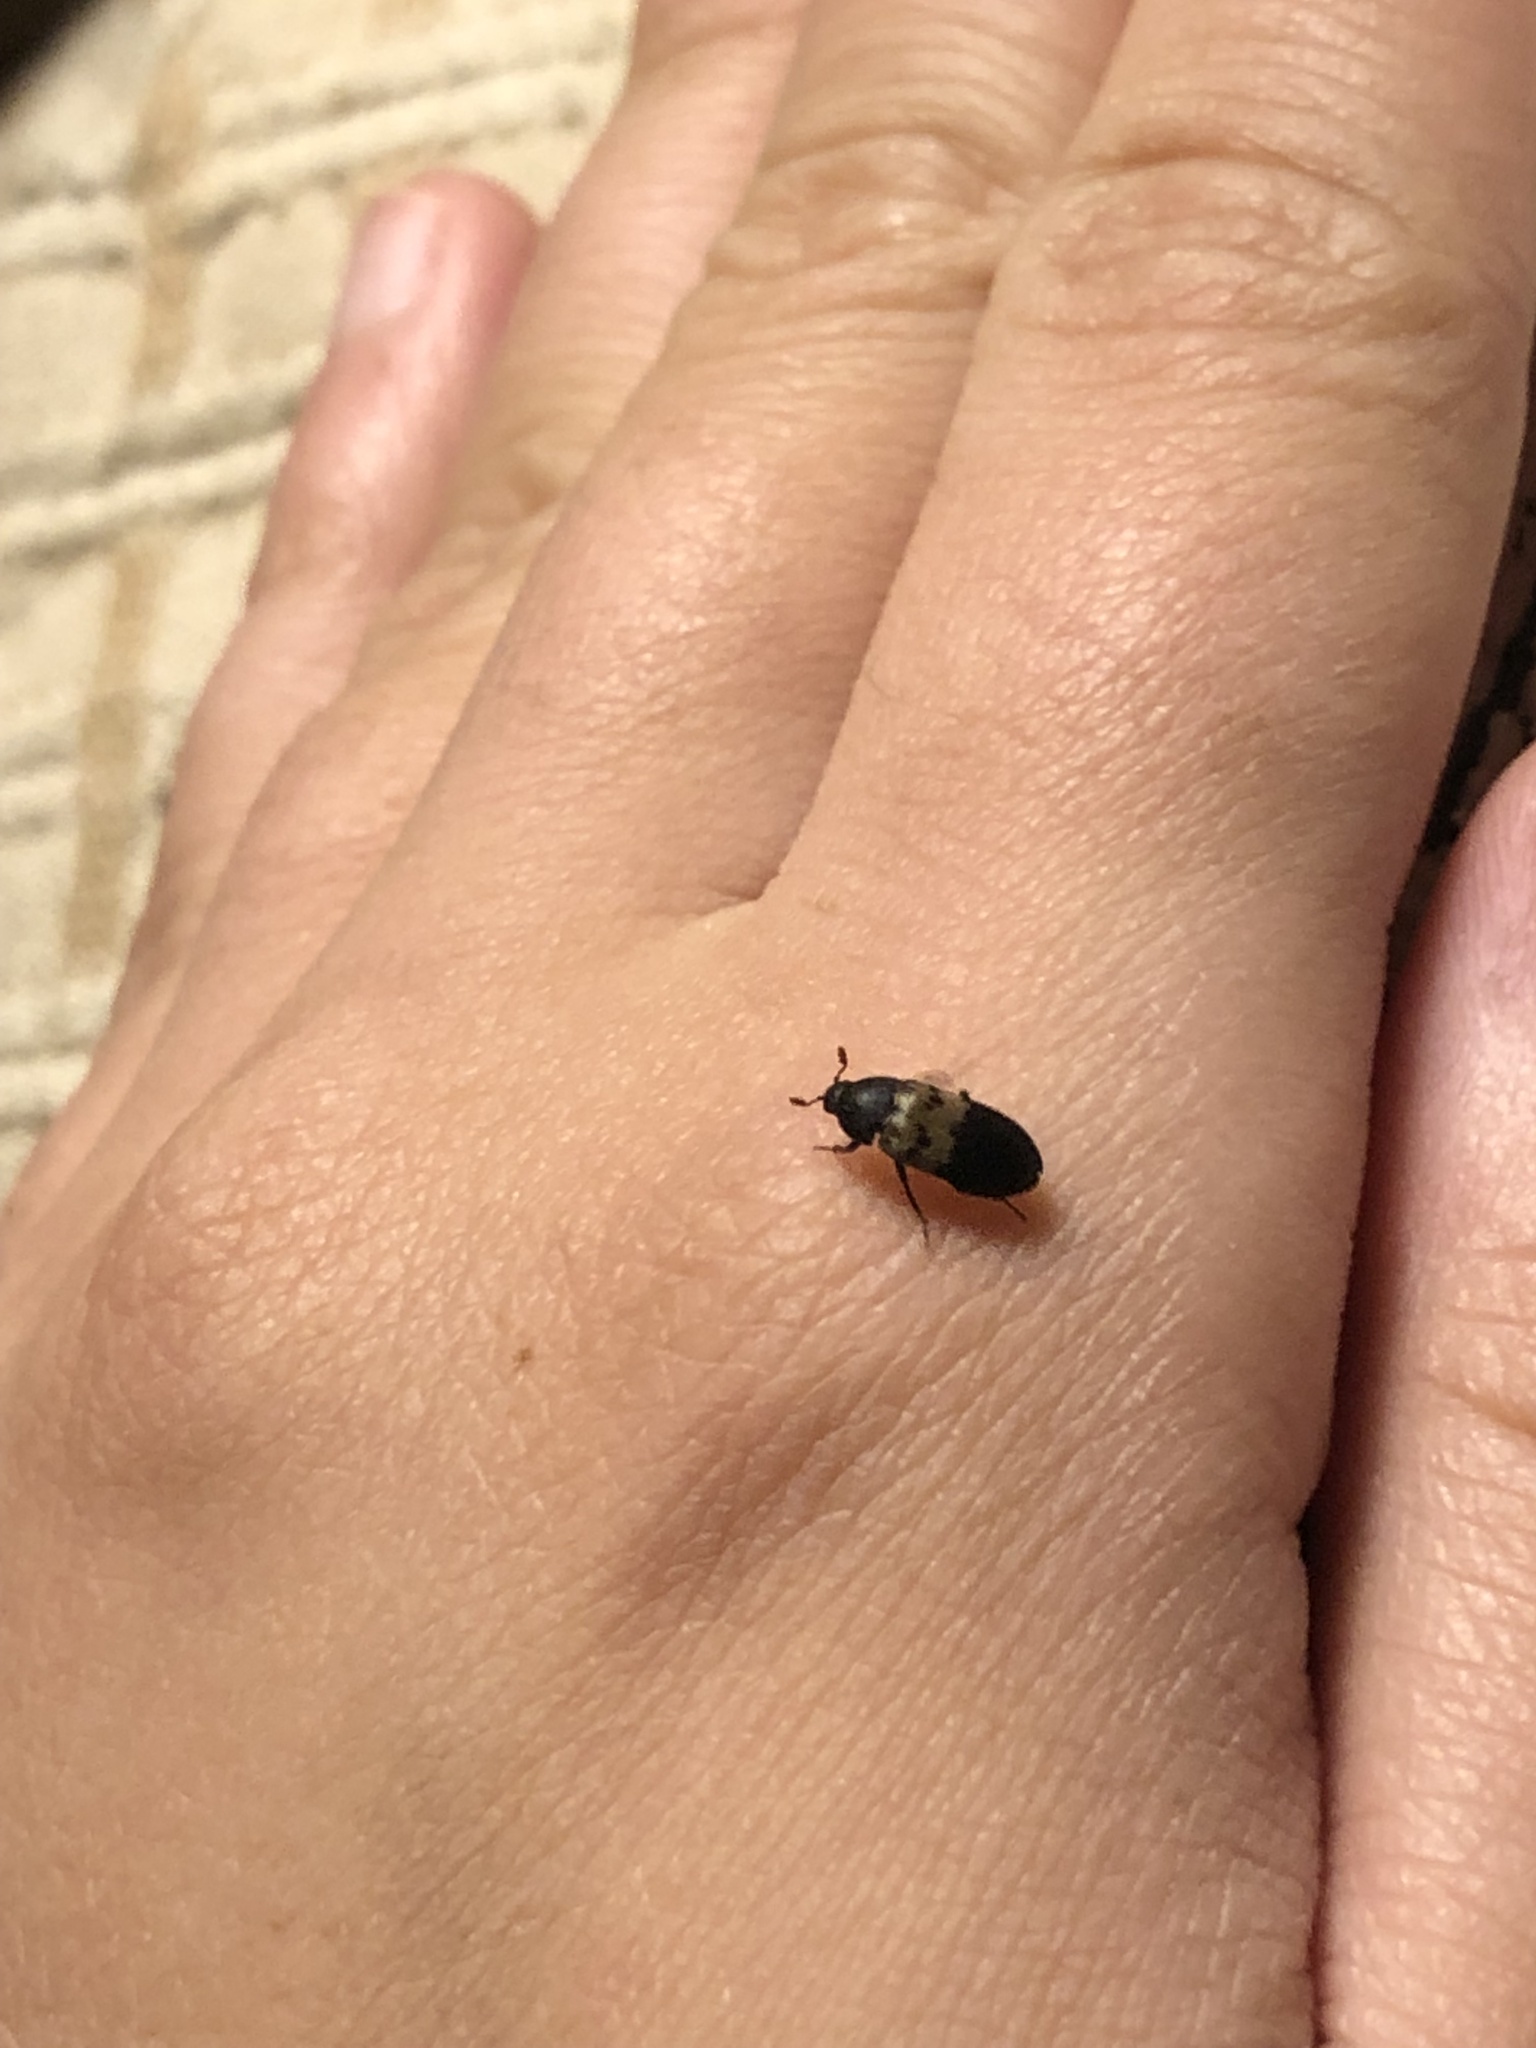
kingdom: Animalia
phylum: Arthropoda
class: Insecta
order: Coleoptera
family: Dermestidae
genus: Dermestes
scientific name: Dermestes lardarius
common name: Larder beetle
